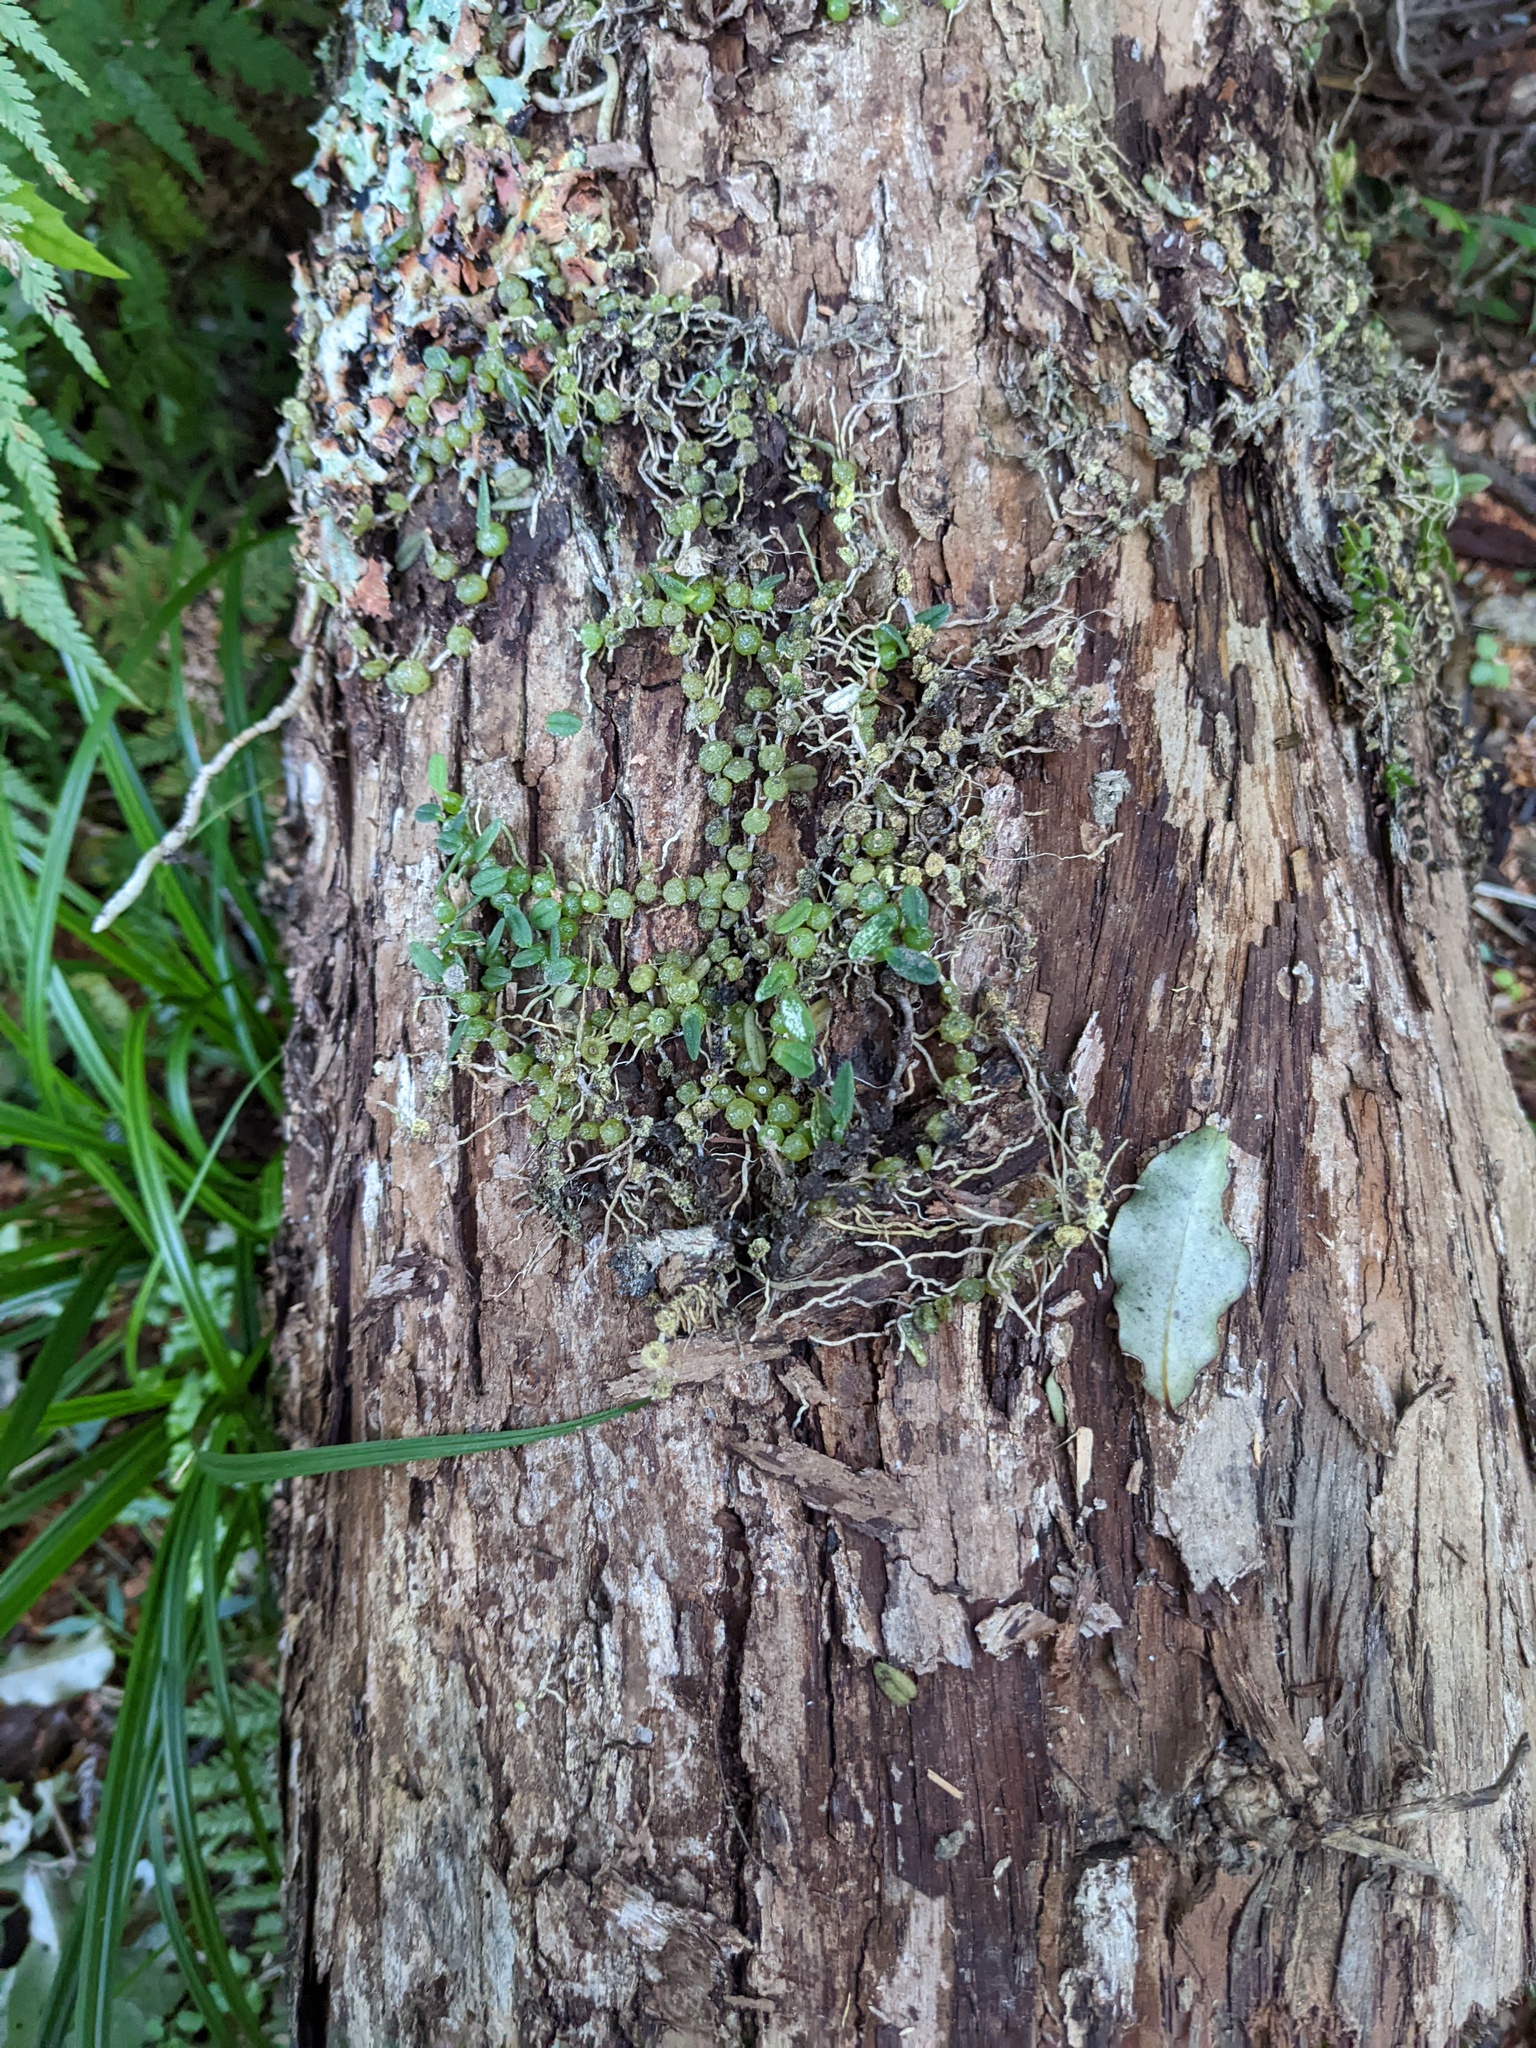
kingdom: Plantae
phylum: Tracheophyta
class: Liliopsida
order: Asparagales
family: Orchidaceae
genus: Bulbophyllum
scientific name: Bulbophyllum pygmaeum
